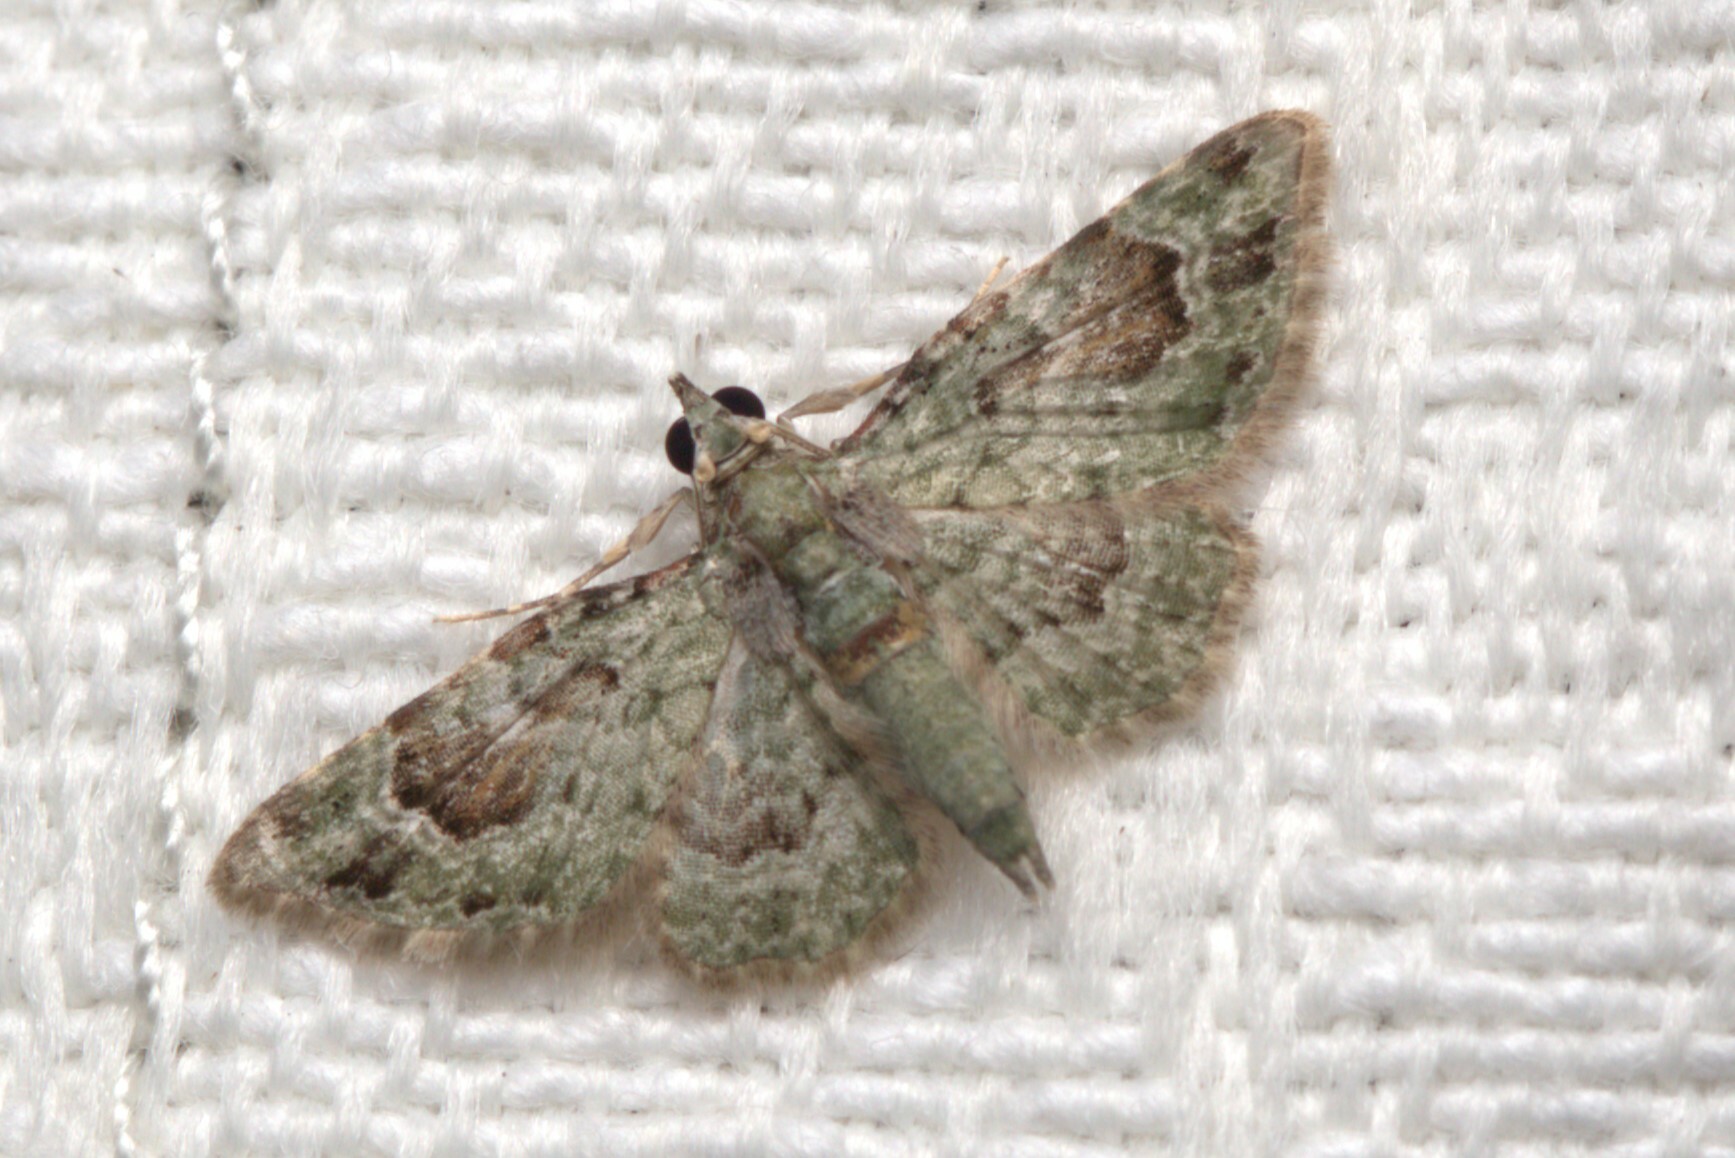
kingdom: Animalia
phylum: Arthropoda
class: Insecta
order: Lepidoptera
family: Geometridae
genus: Calluga
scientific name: Calluga costalis
